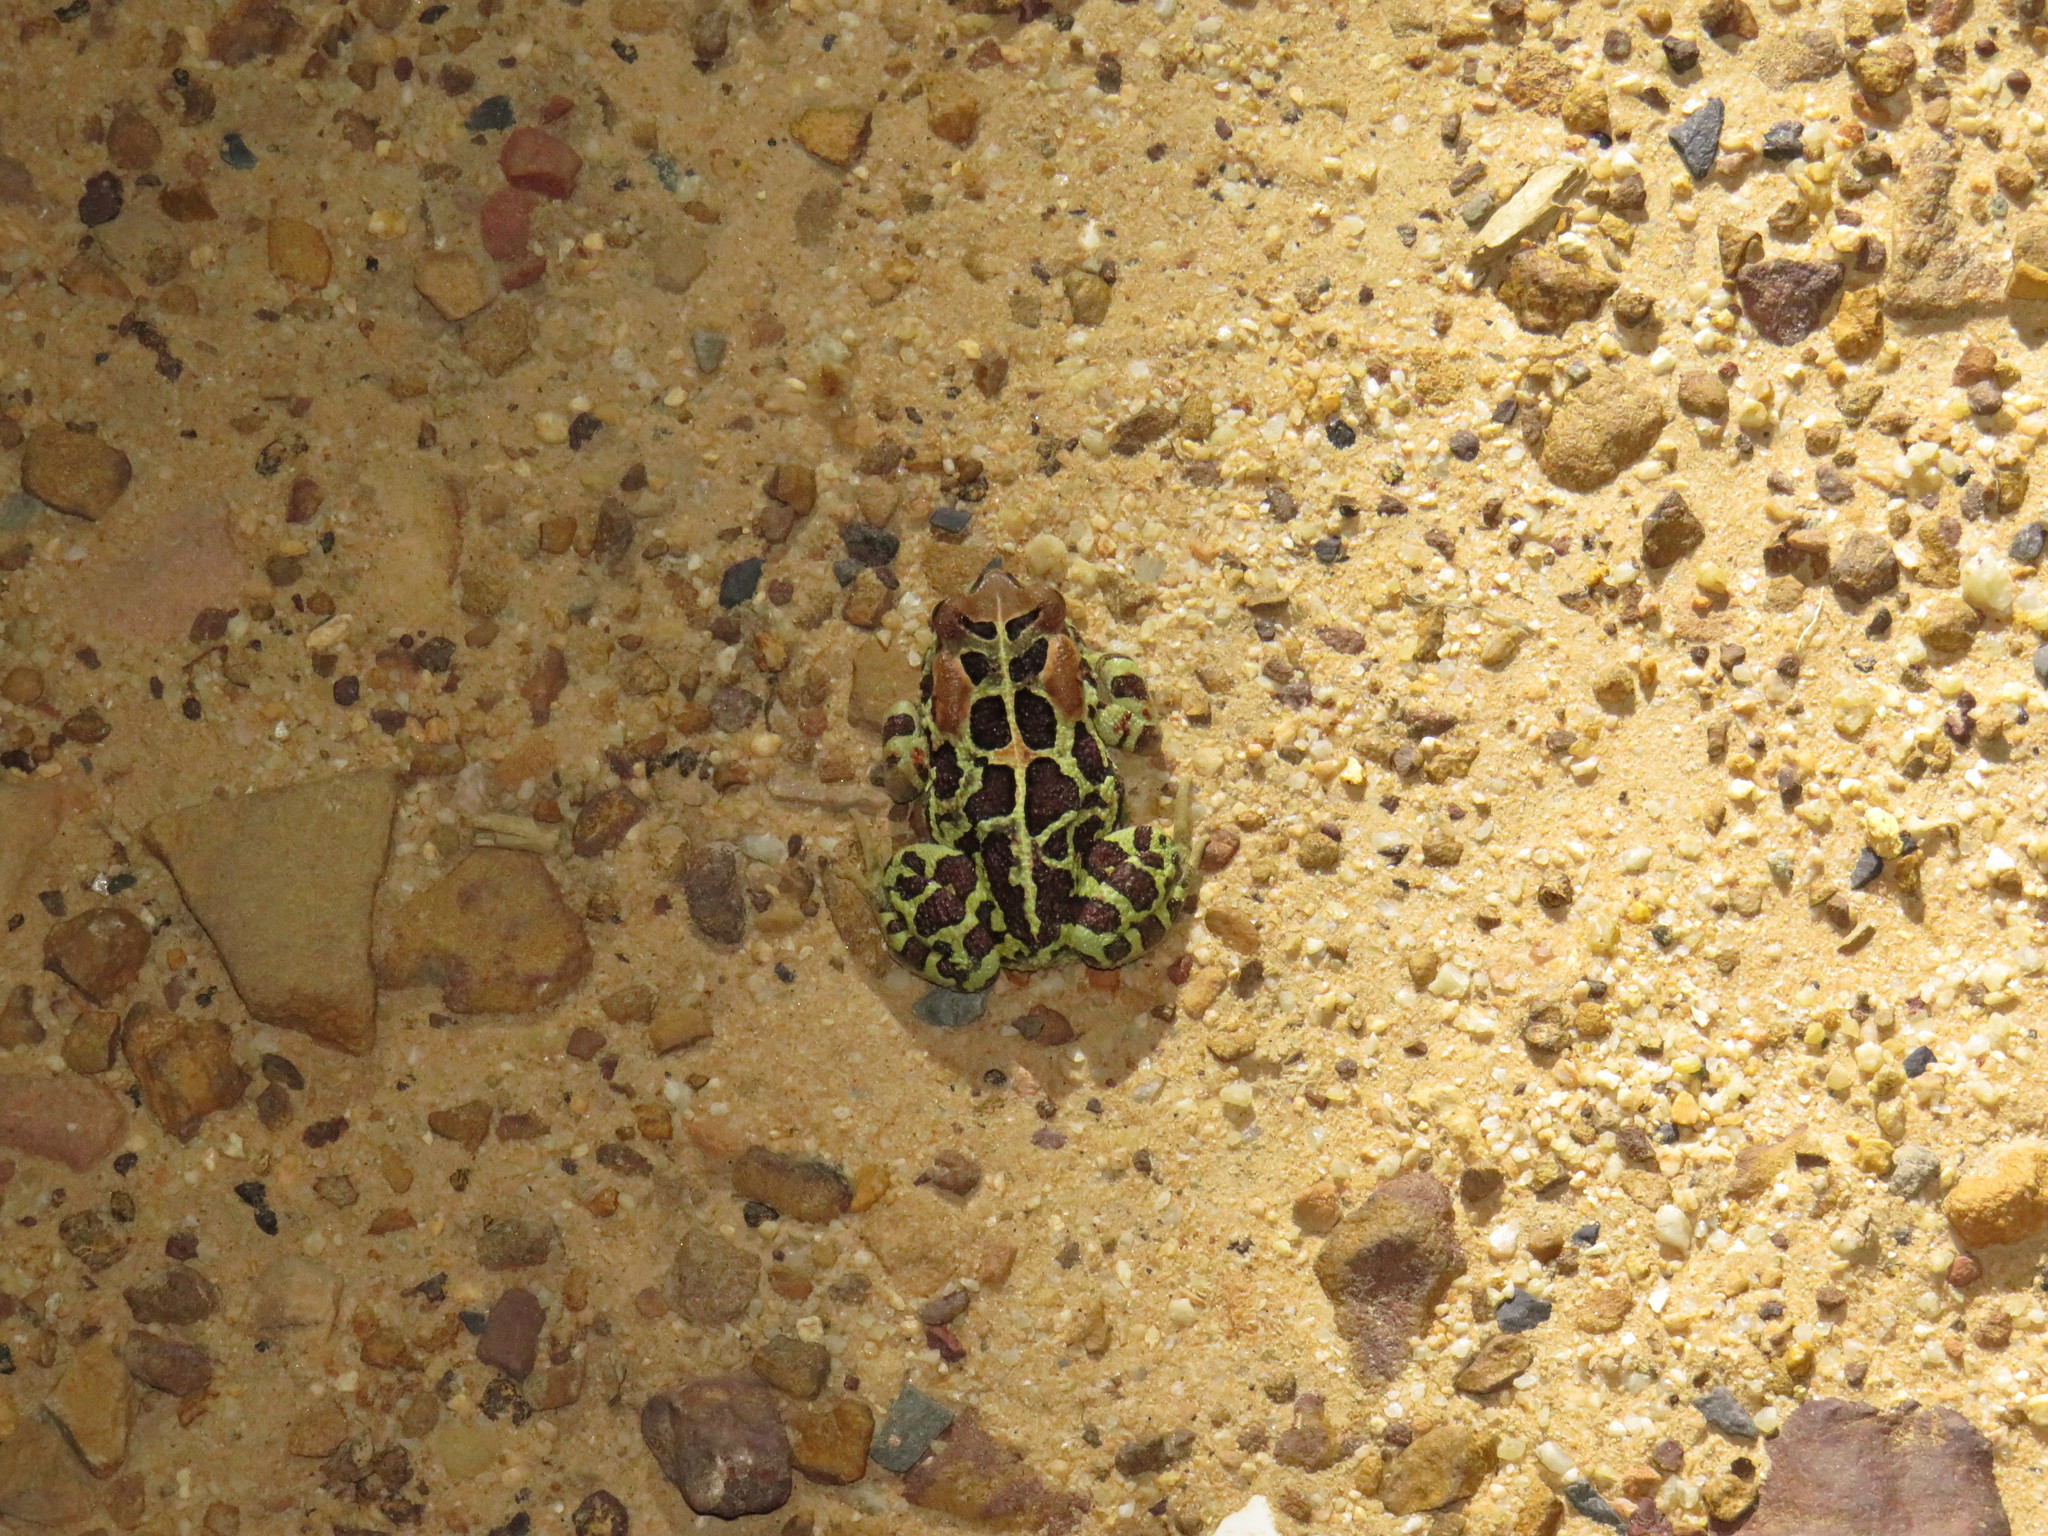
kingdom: Animalia
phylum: Chordata
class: Amphibia
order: Anura
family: Bufonidae
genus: Sclerophrys
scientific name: Sclerophrys pantherina
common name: Panther toad
